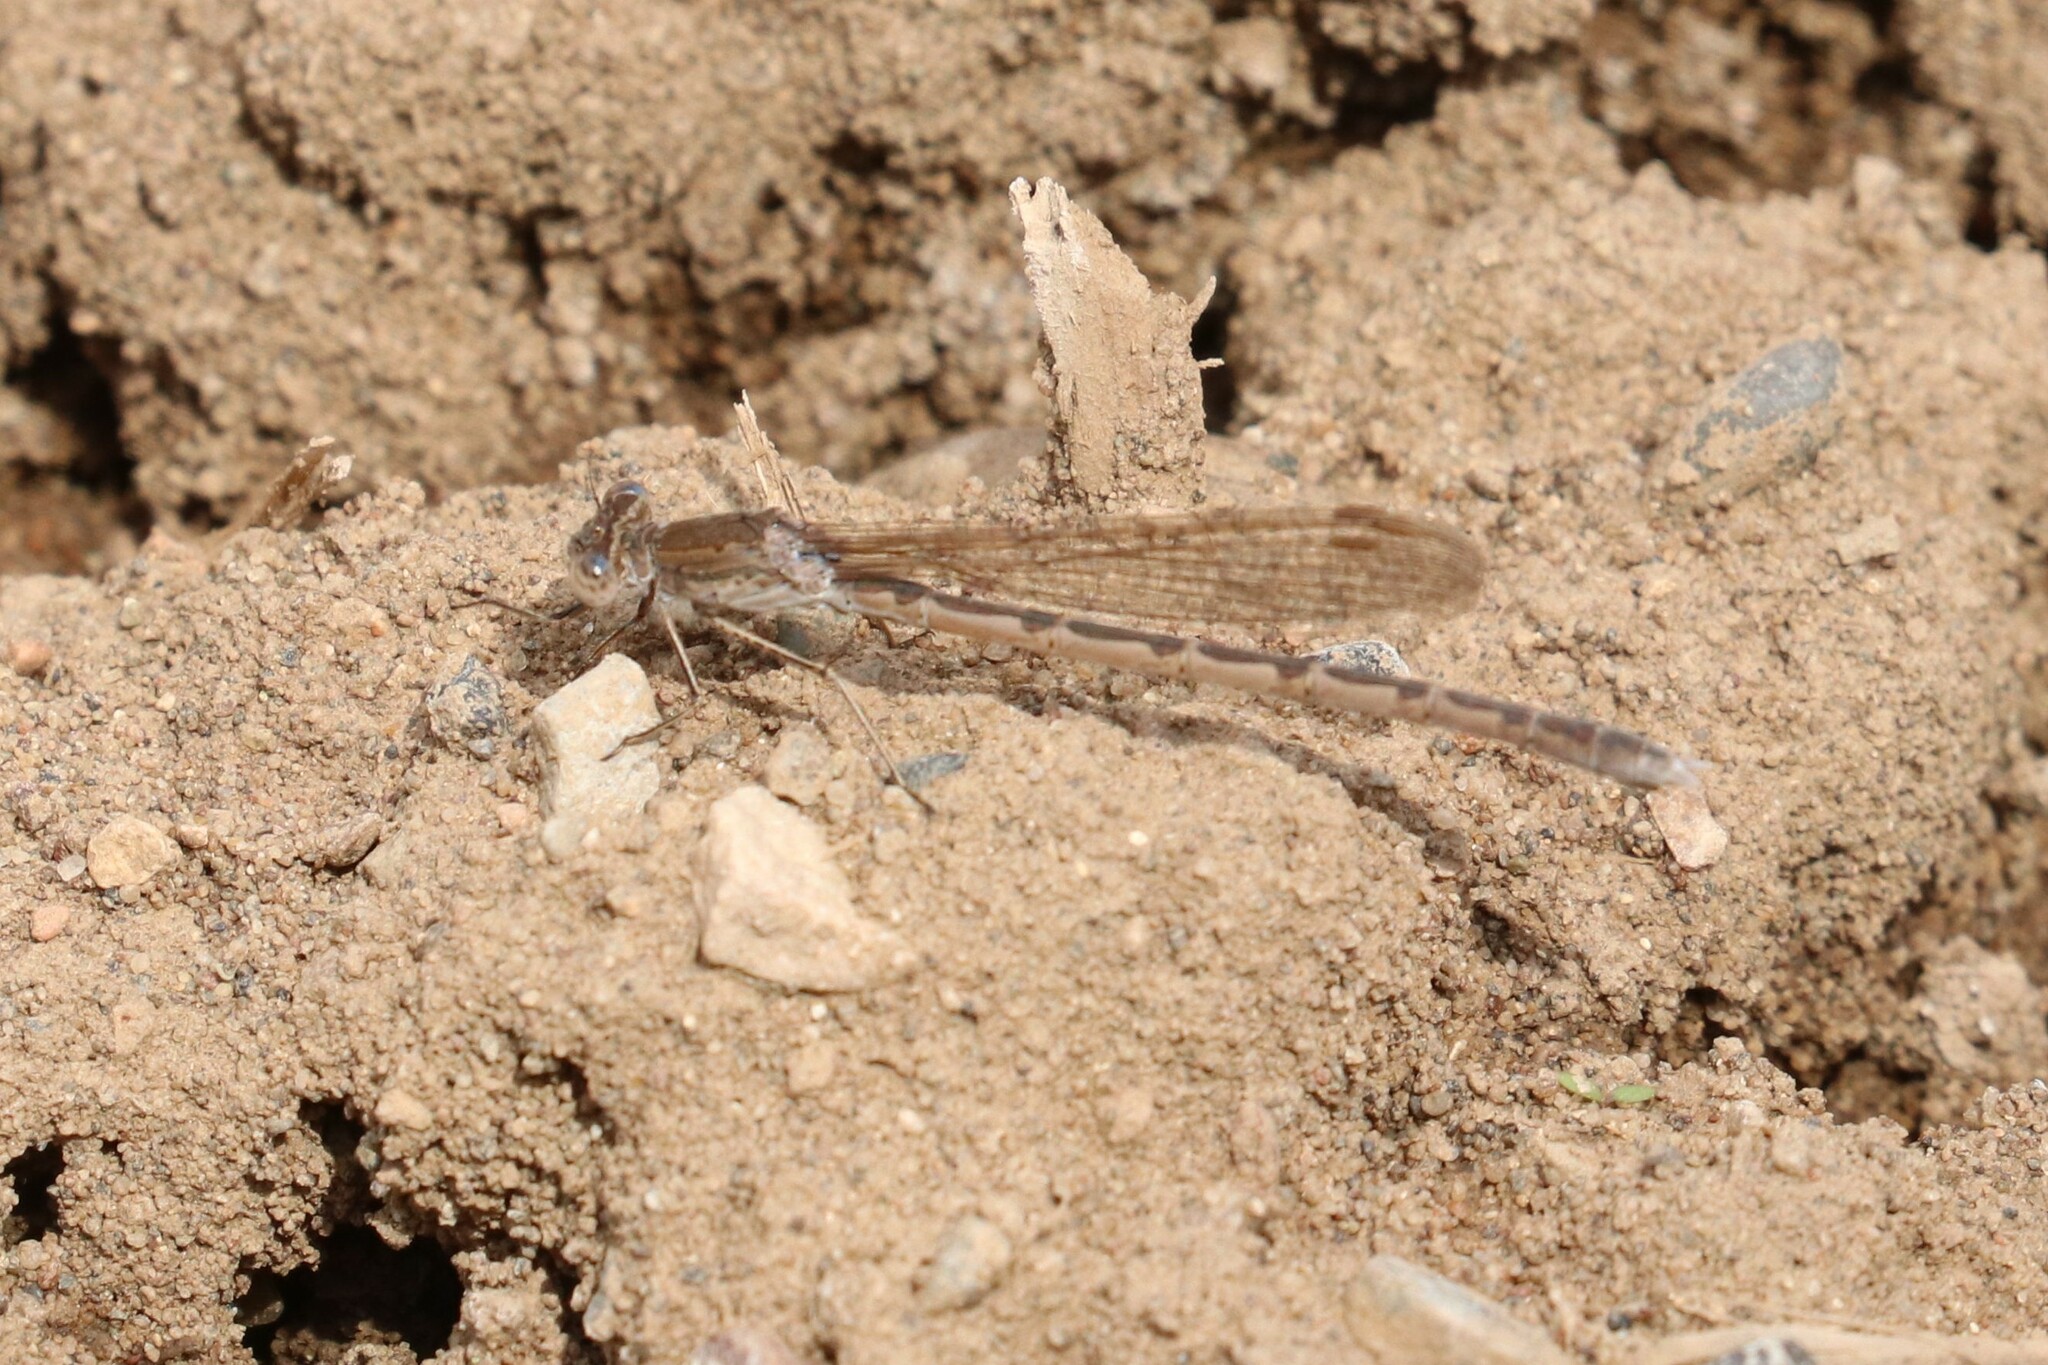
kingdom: Animalia
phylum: Arthropoda
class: Insecta
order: Odonata
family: Lestidae
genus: Sympecma
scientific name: Sympecma paedisca
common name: Siberian winter damsel
